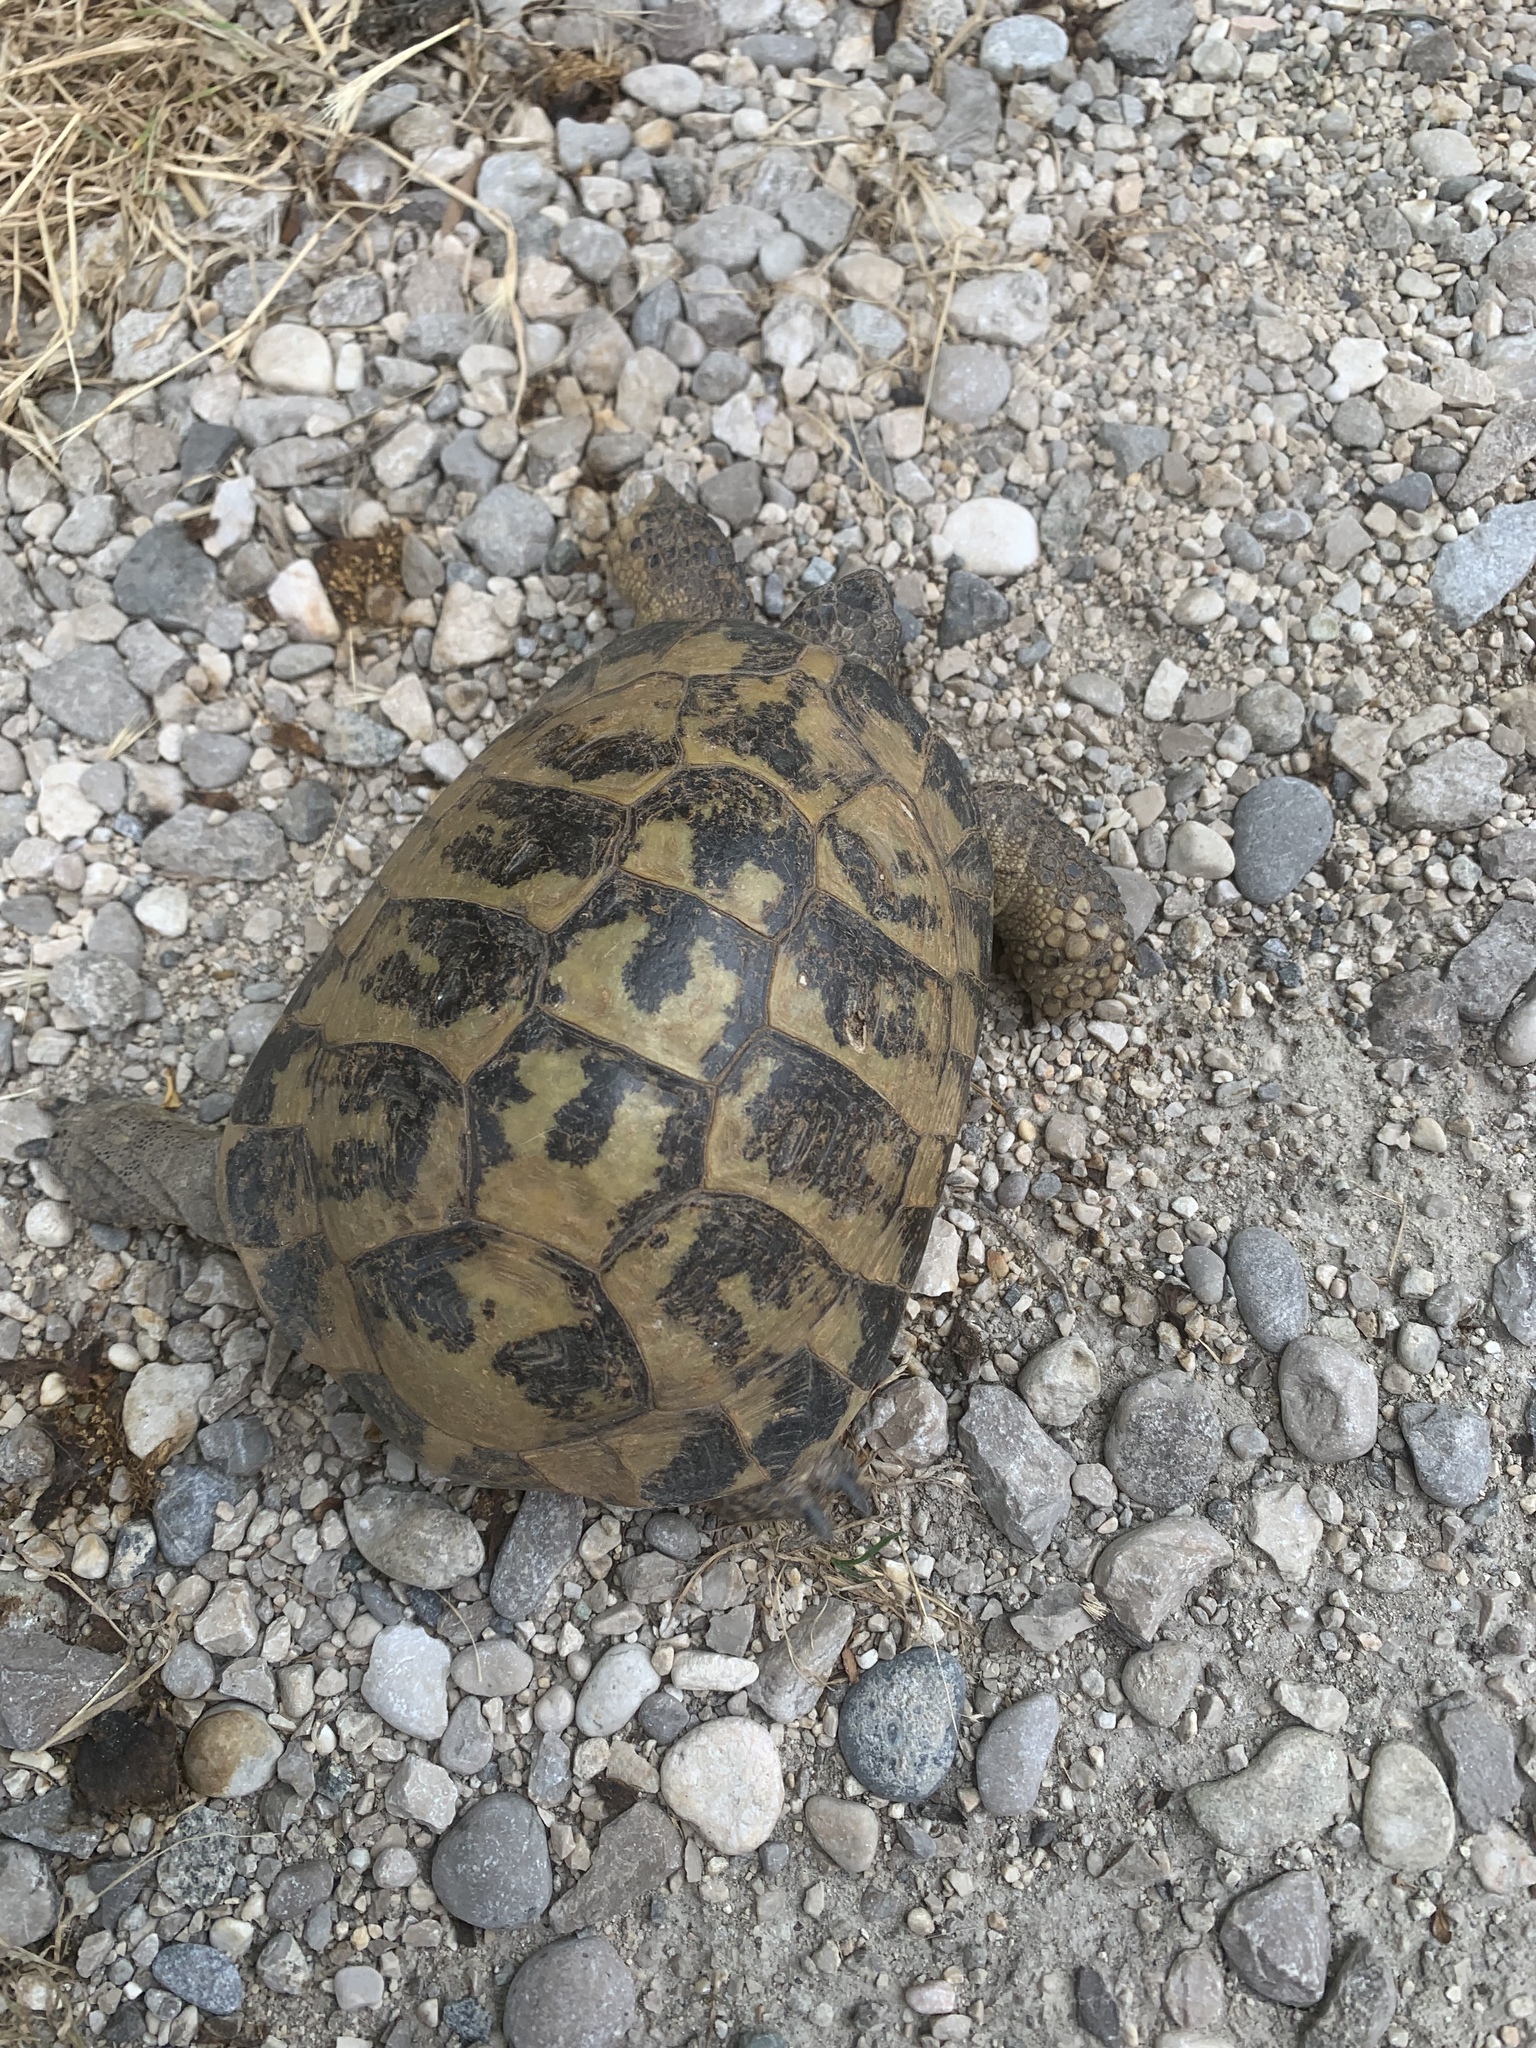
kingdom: Animalia
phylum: Chordata
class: Testudines
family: Testudinidae
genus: Testudo
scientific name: Testudo hermanni
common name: Hermann's tortoise
